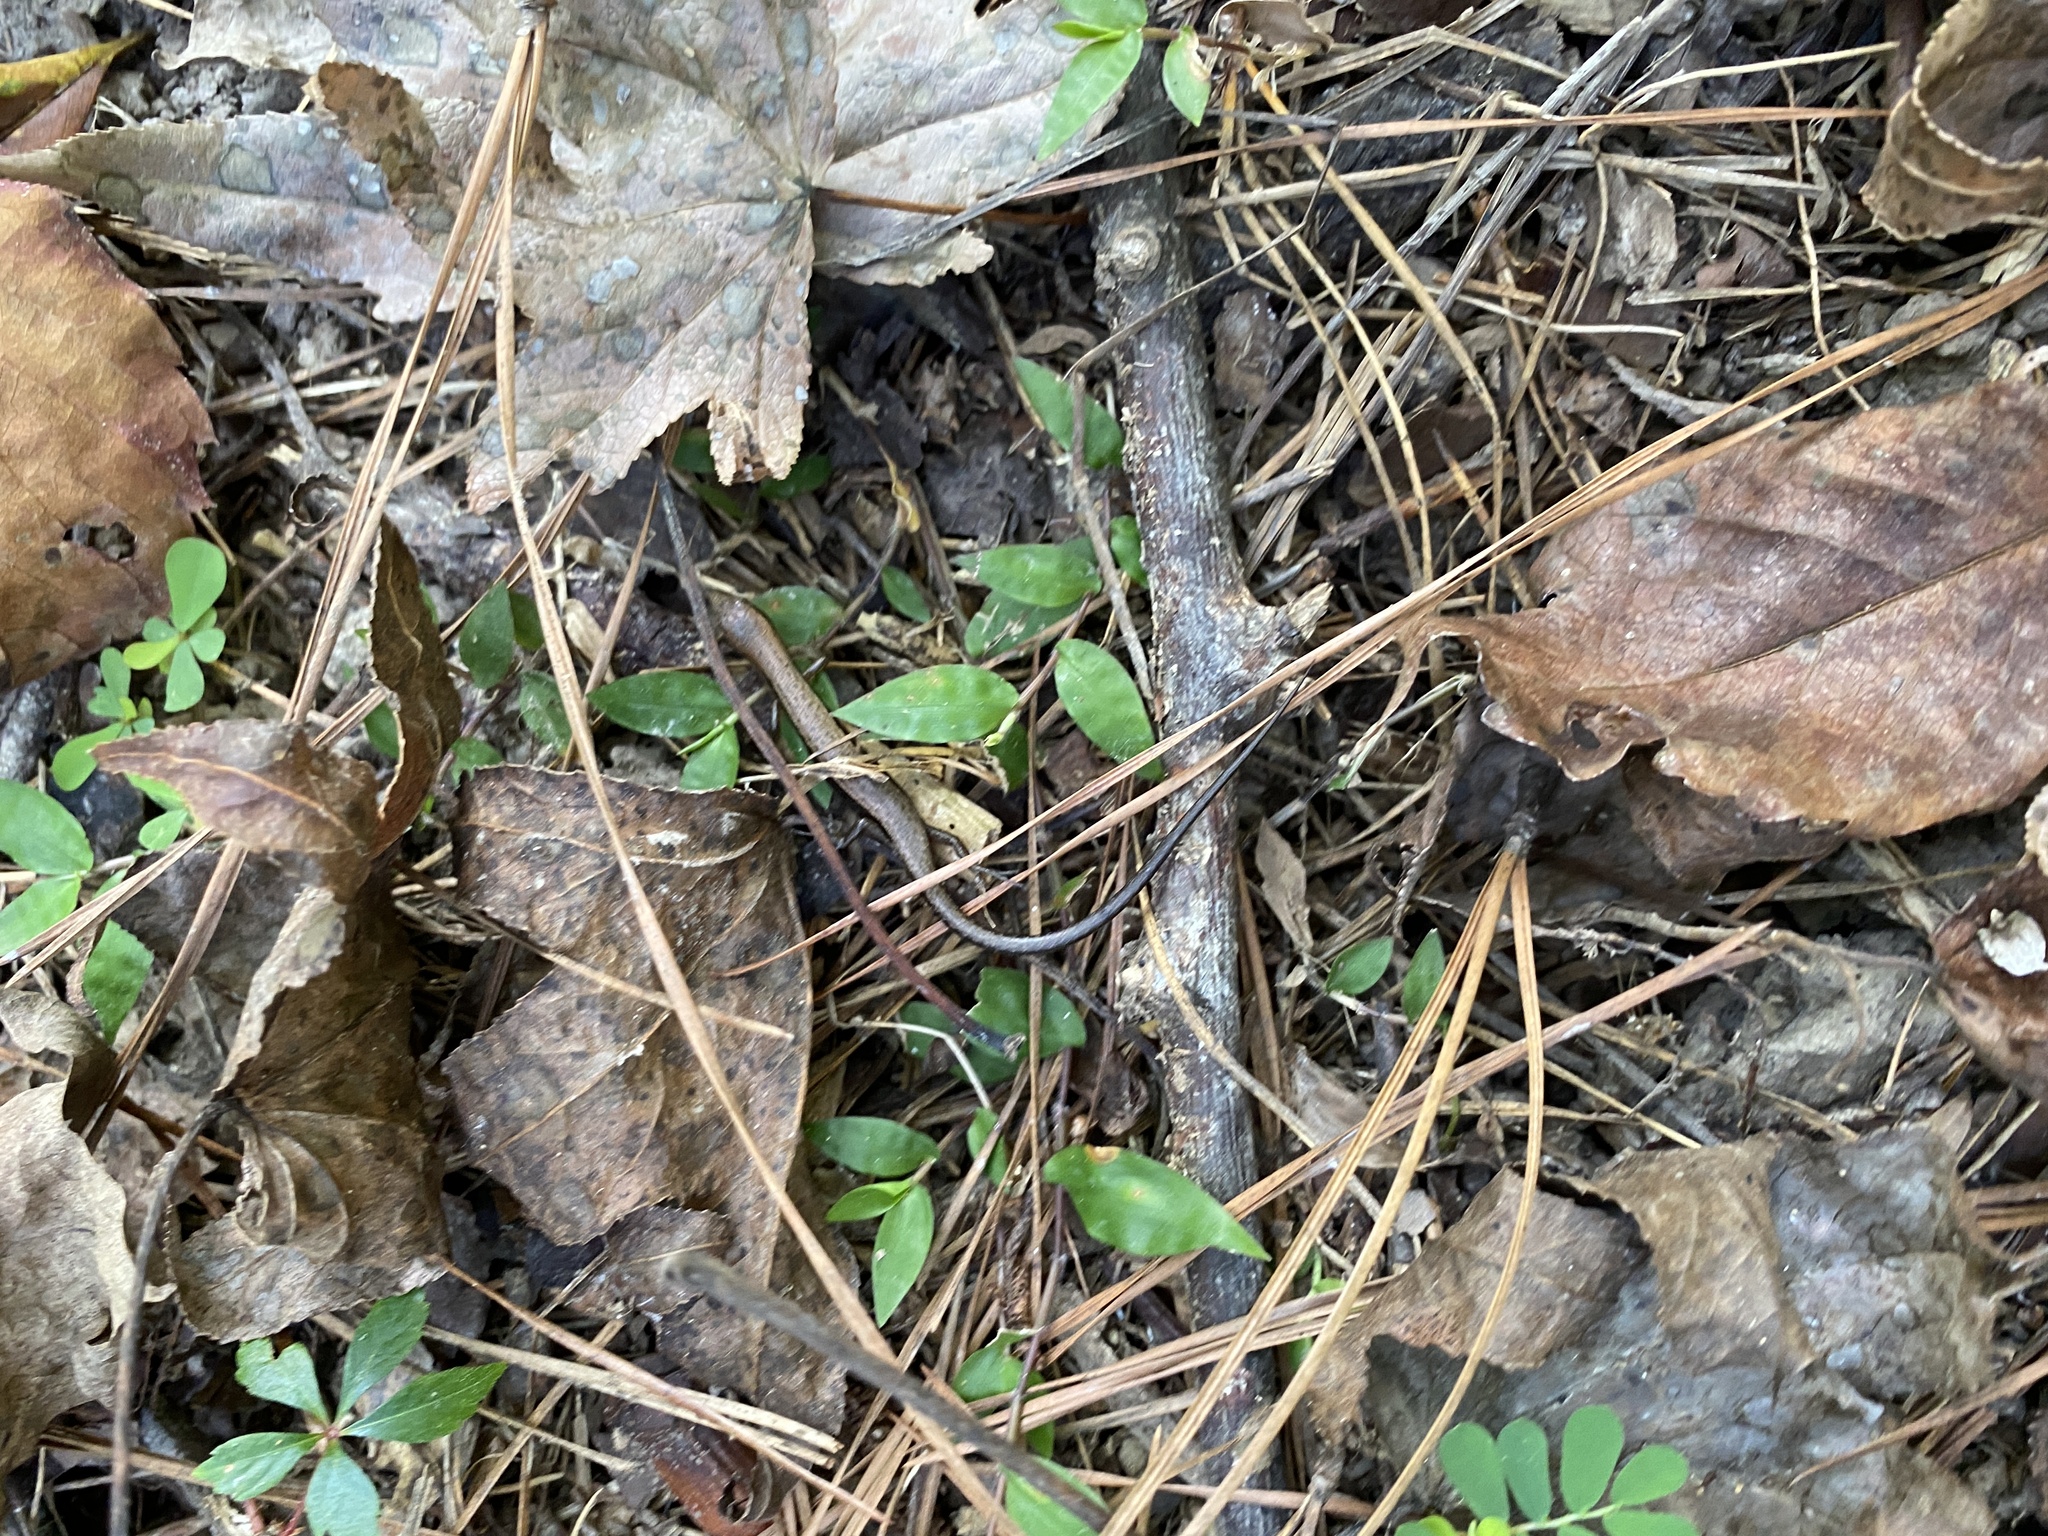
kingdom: Animalia
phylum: Chordata
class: Squamata
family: Scincidae
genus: Scincella
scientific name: Scincella lateralis
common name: Ground skink
